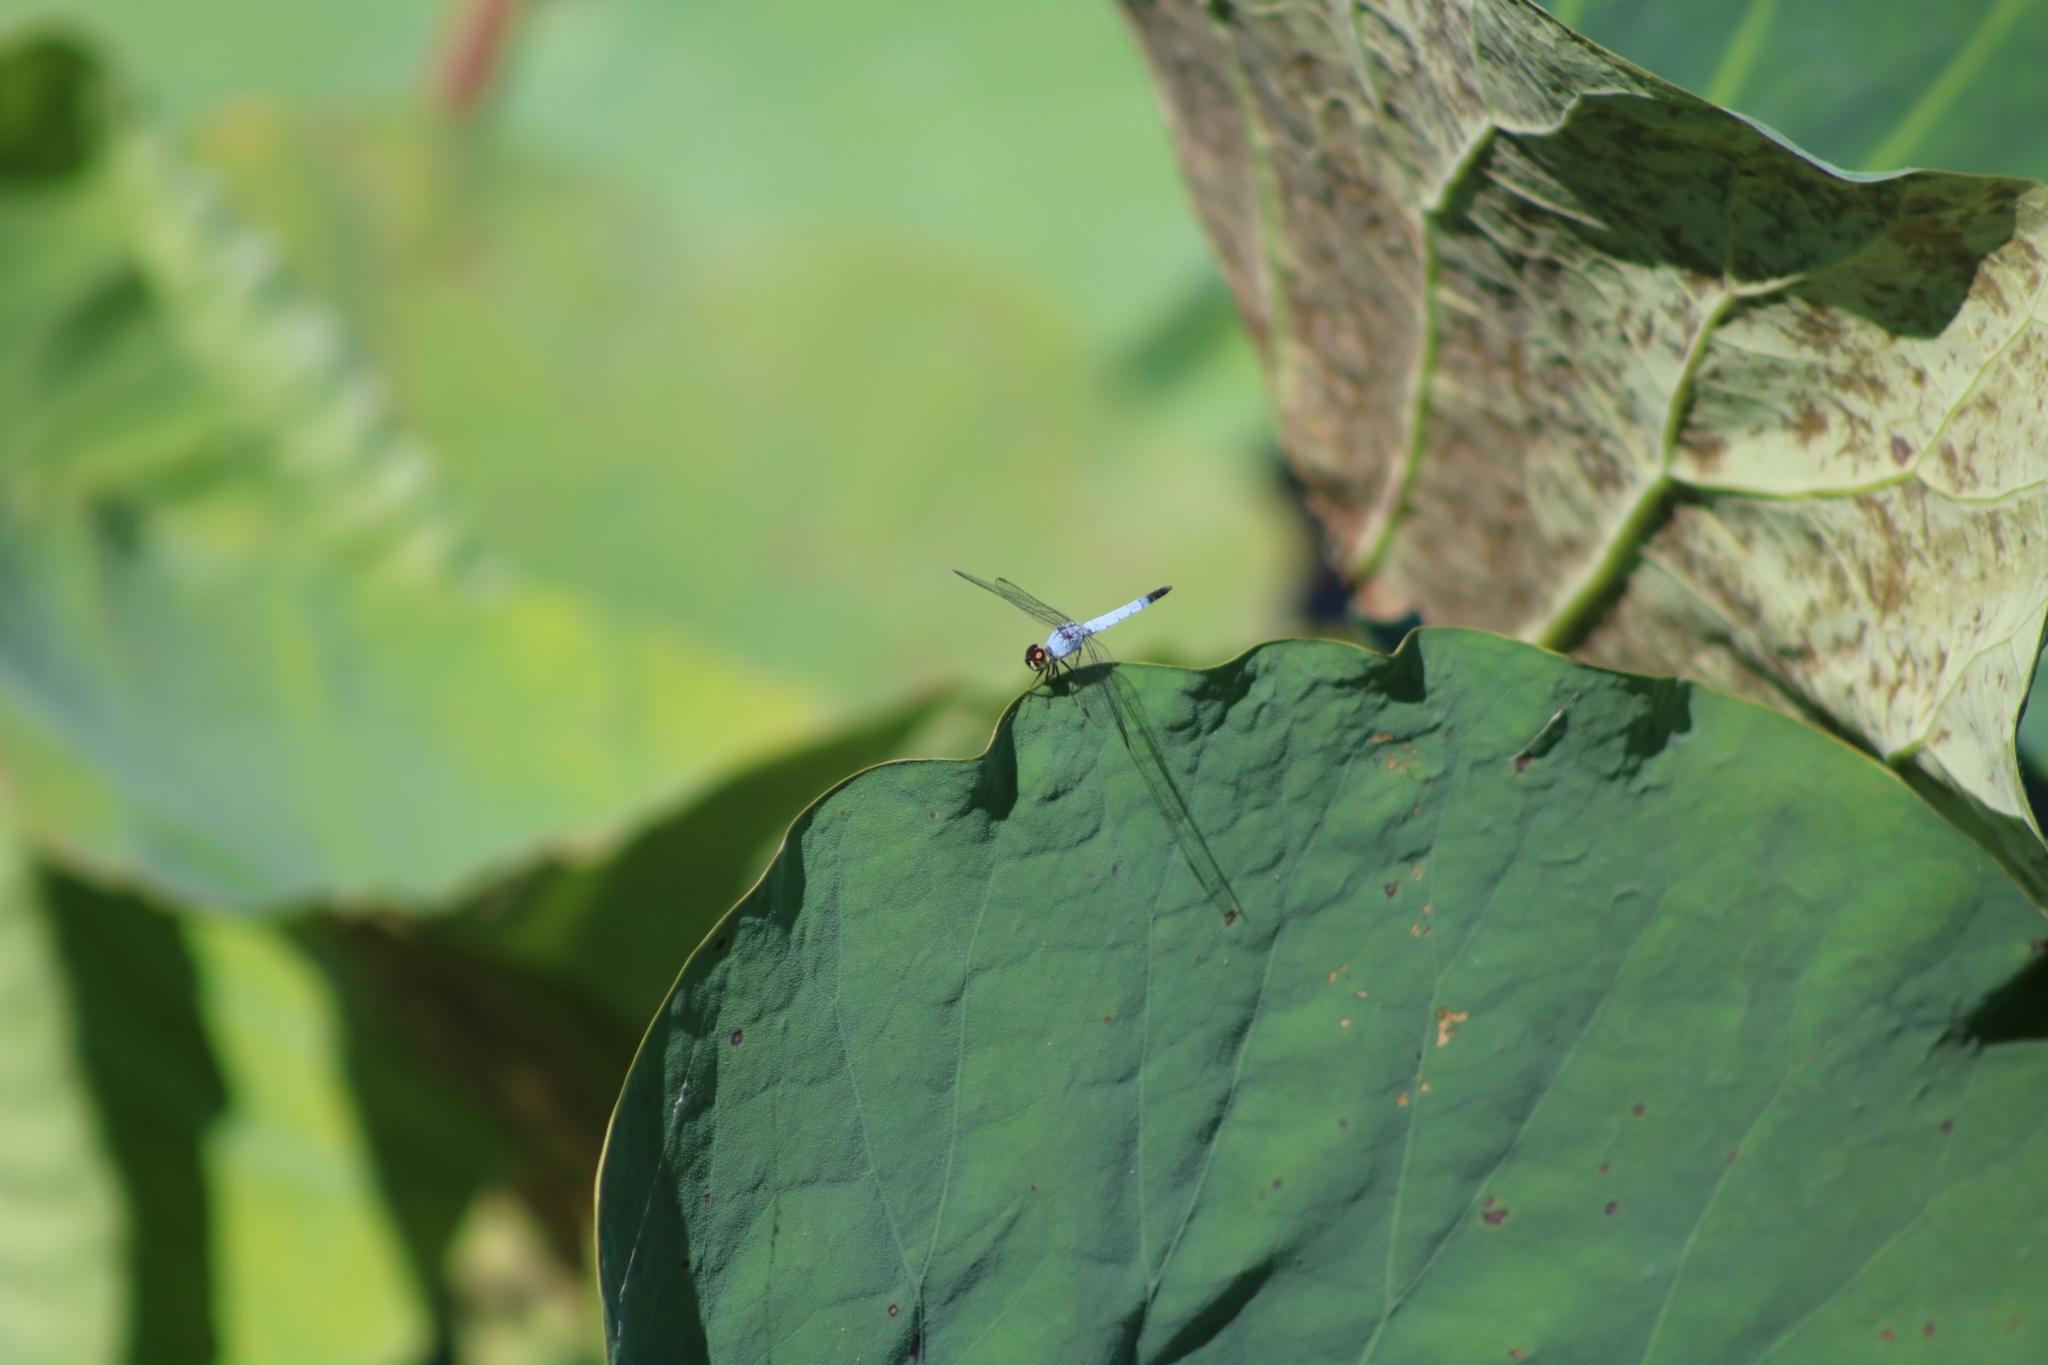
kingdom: Animalia
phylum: Arthropoda
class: Insecta
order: Odonata
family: Libellulidae
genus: Brachydiplax
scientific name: Brachydiplax denticauda
